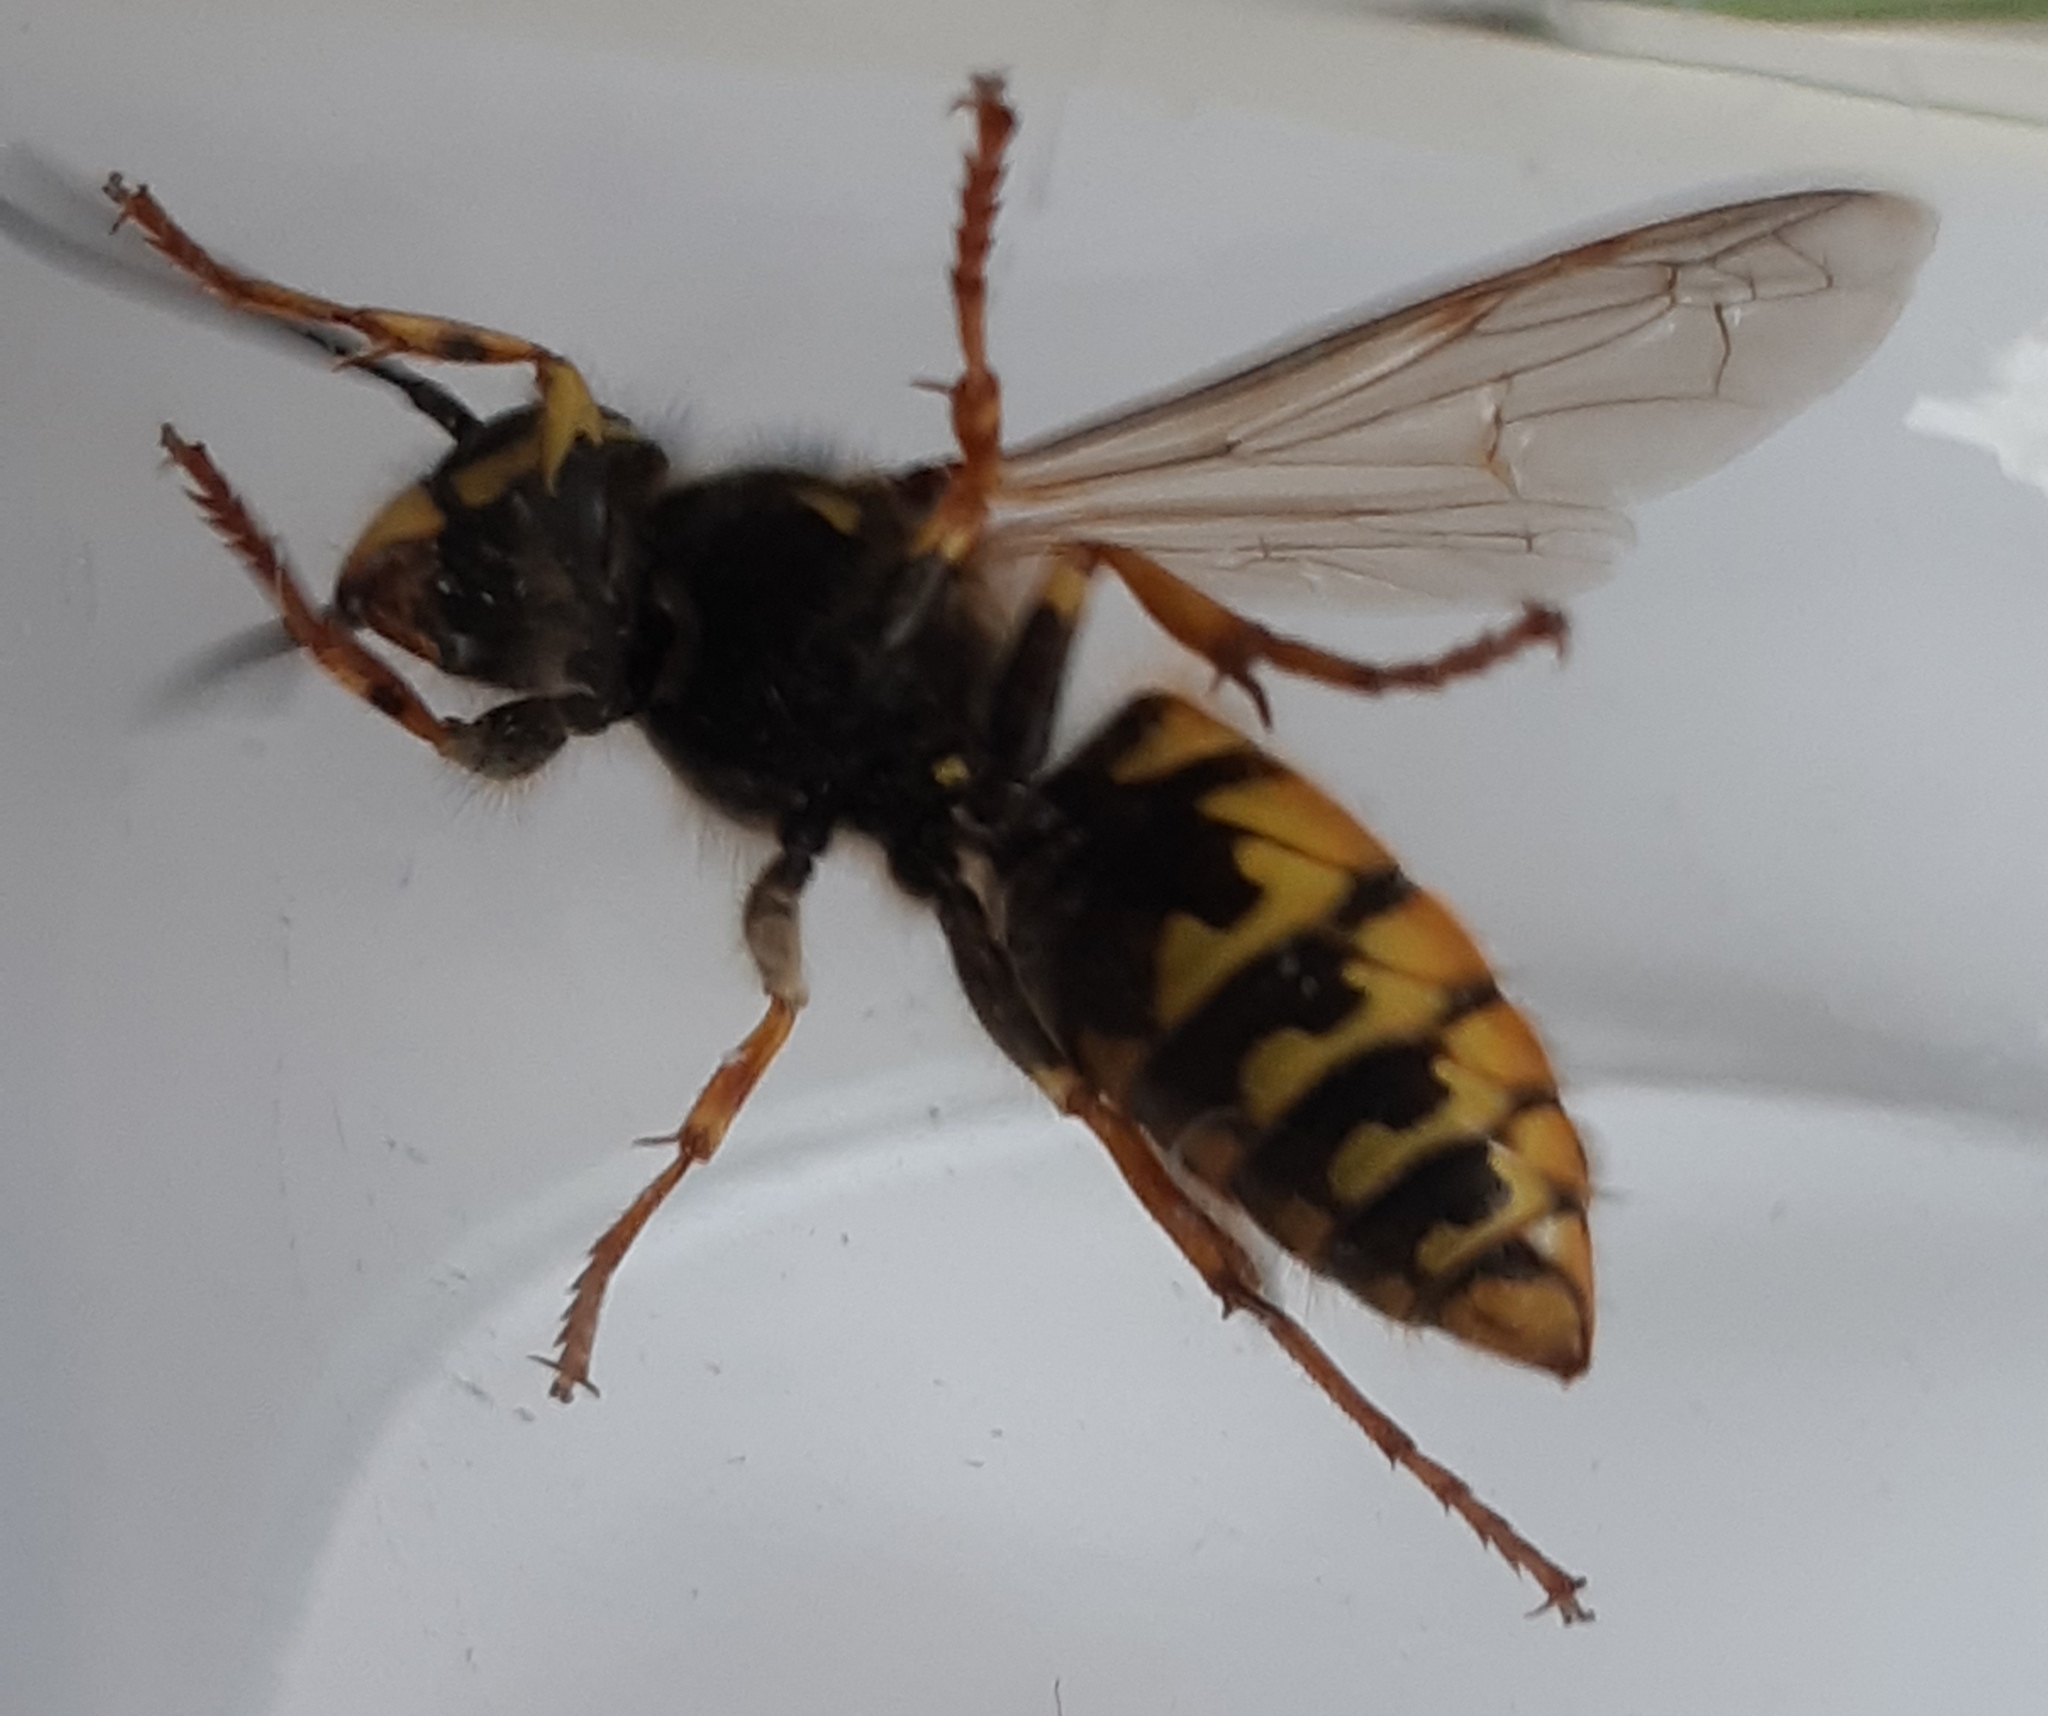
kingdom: Animalia
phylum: Arthropoda
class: Insecta
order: Hymenoptera
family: Vespidae
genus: Vespula
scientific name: Vespula germanica
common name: German wasp
